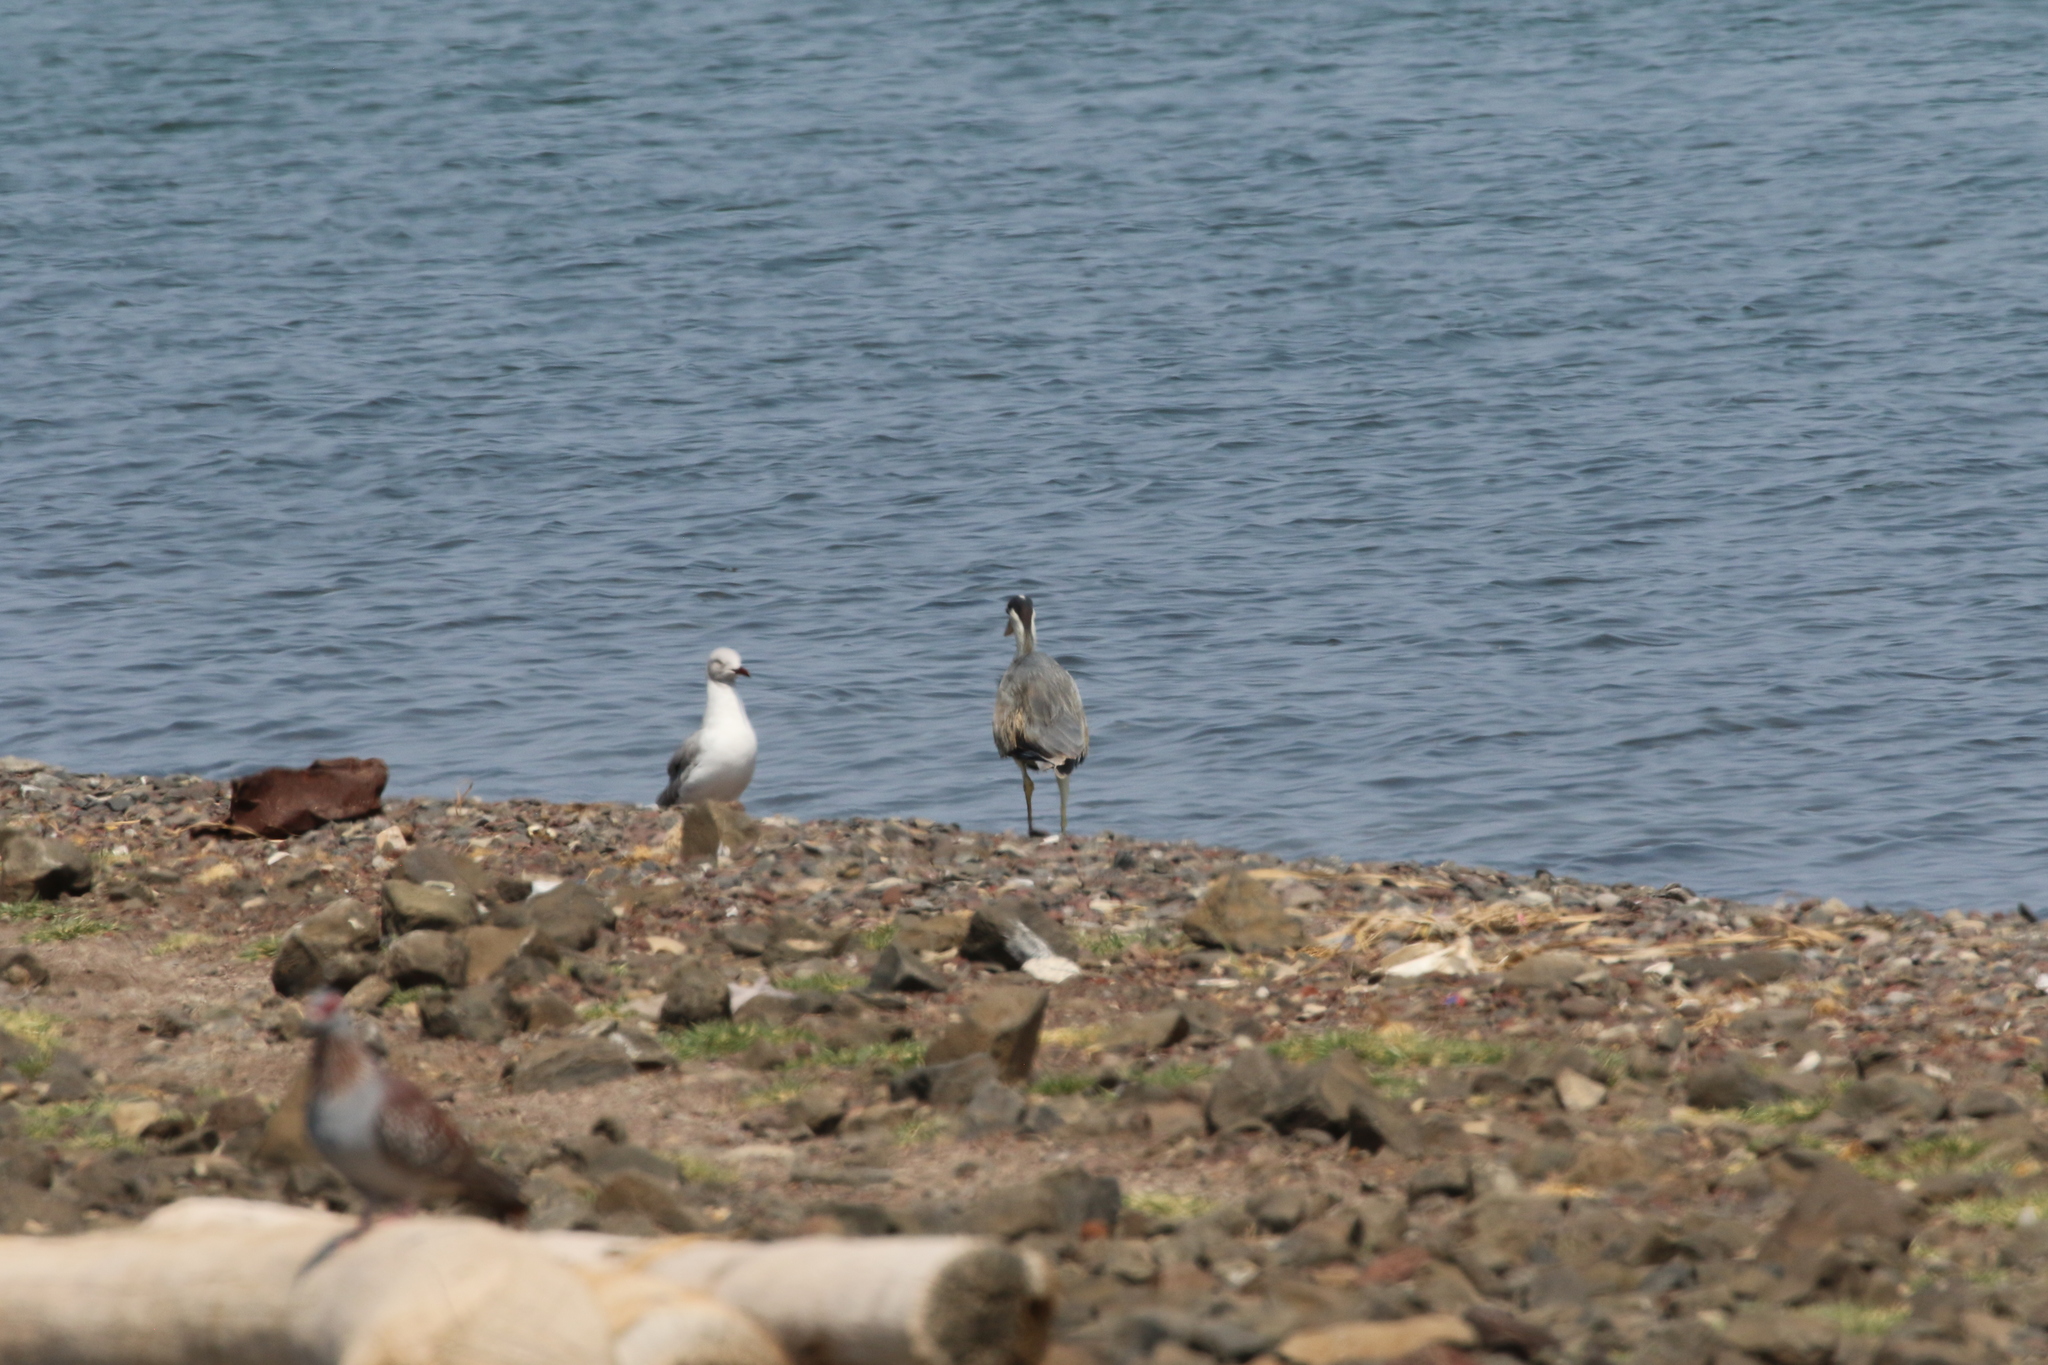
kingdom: Animalia
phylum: Chordata
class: Aves
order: Pelecaniformes
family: Ardeidae
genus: Ardea
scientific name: Ardea cinerea
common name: Grey heron
